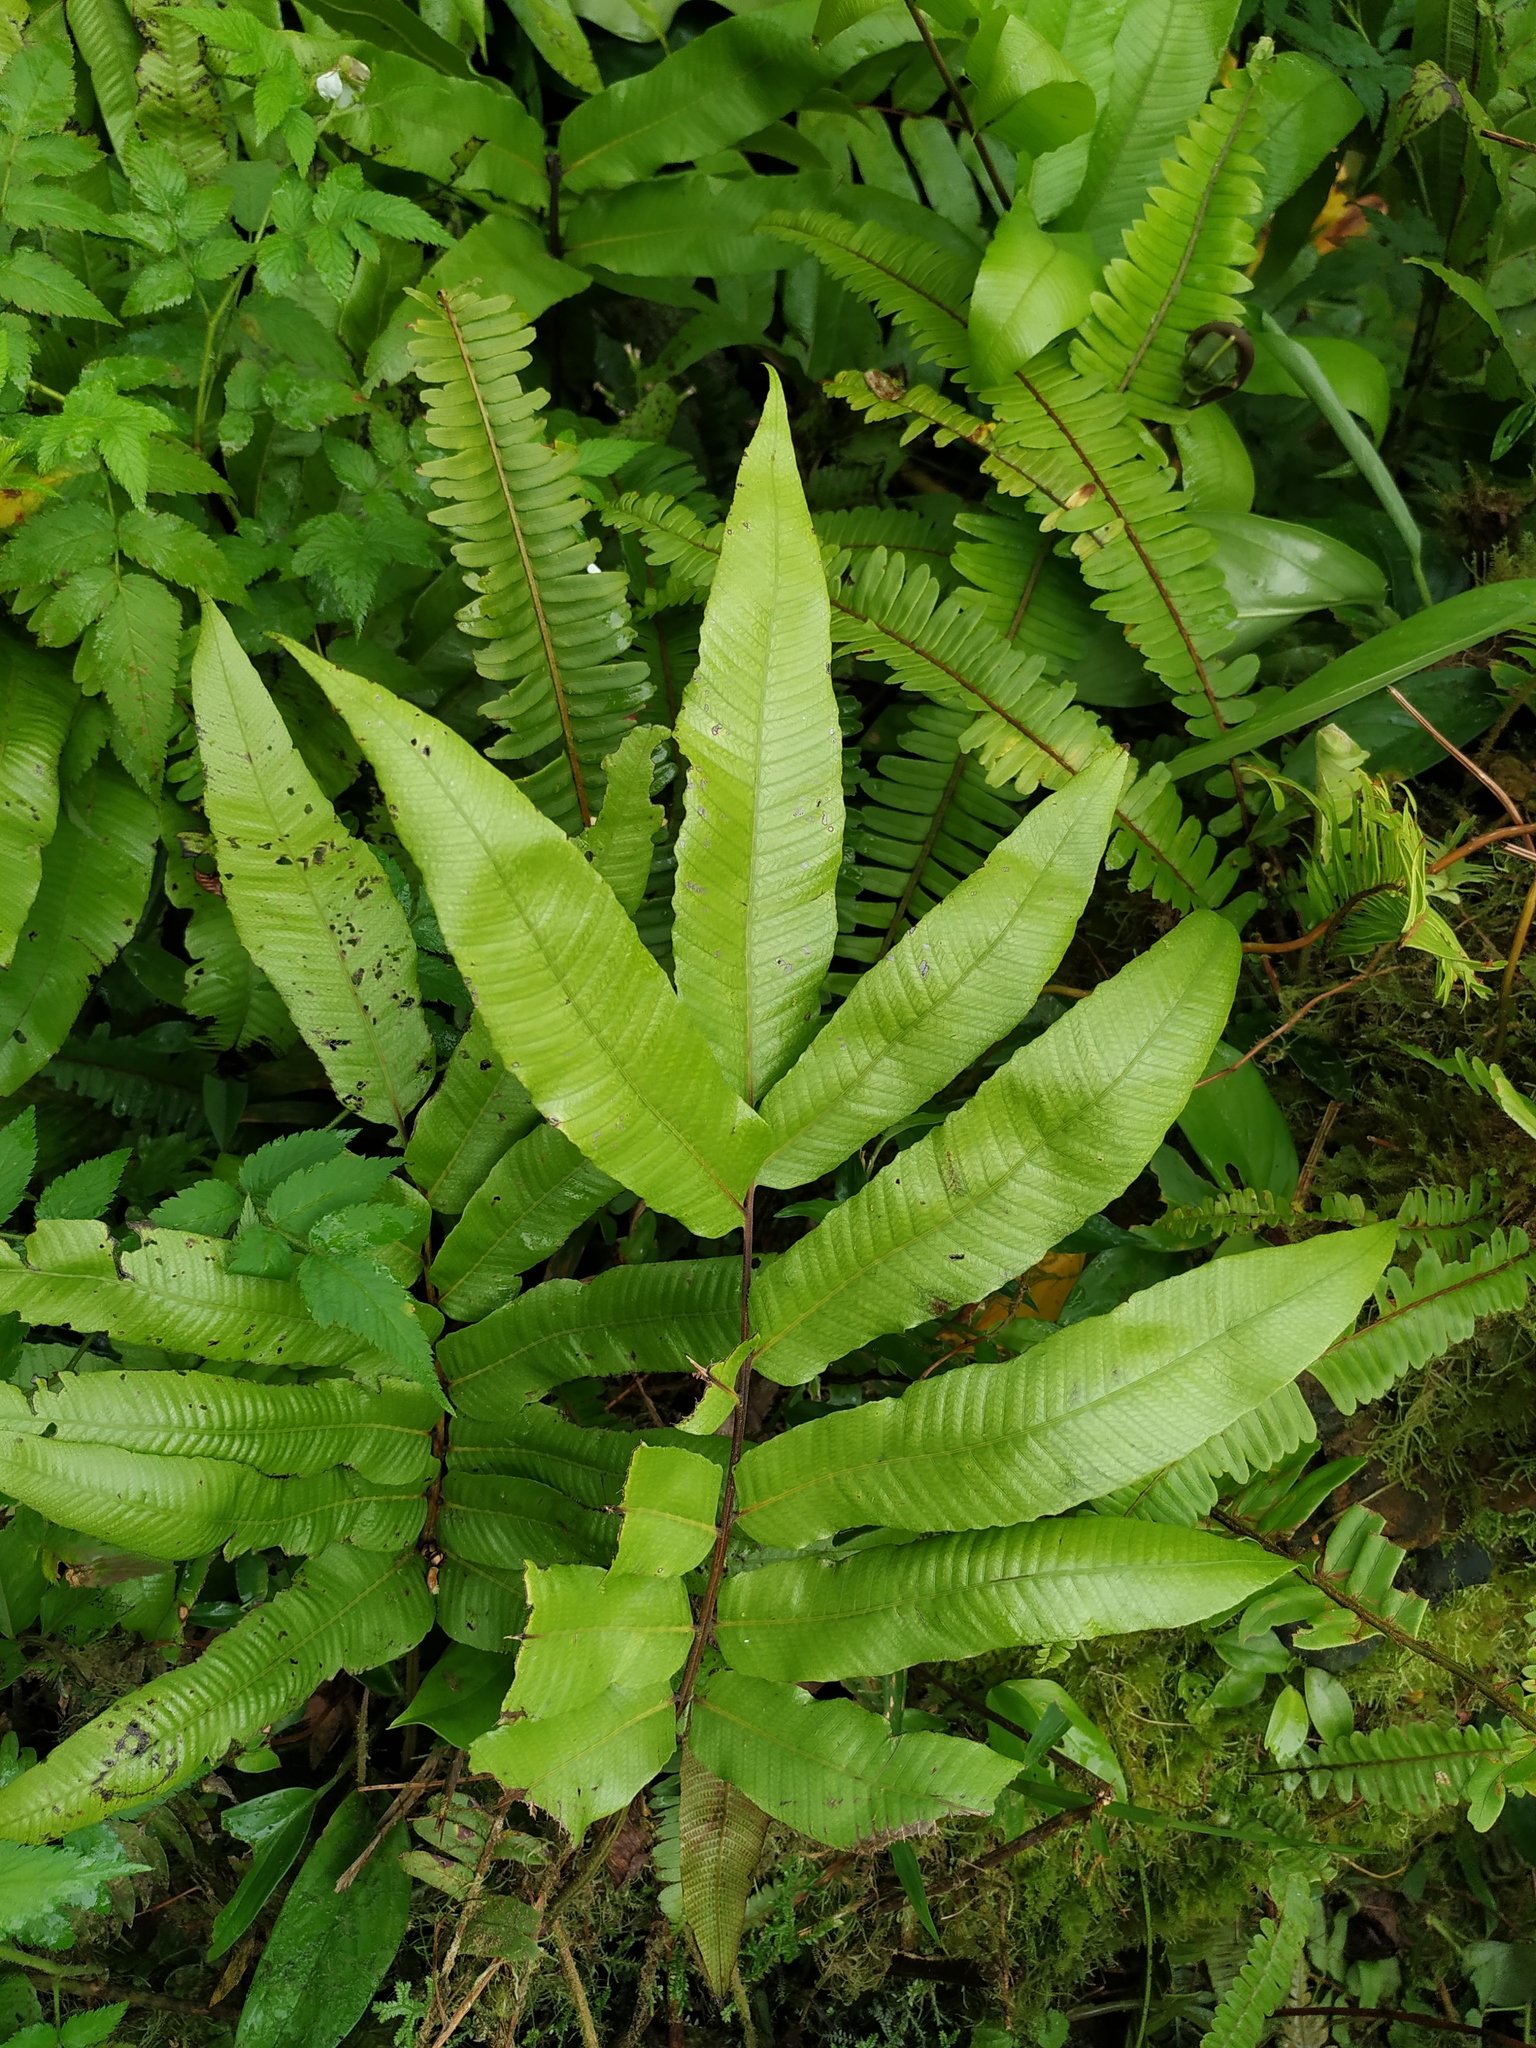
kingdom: Plantae
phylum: Tracheophyta
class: Polypodiopsida
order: Polypodiales
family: Thelypteridaceae
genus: Meniscium
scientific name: Meniscium reticulatum
